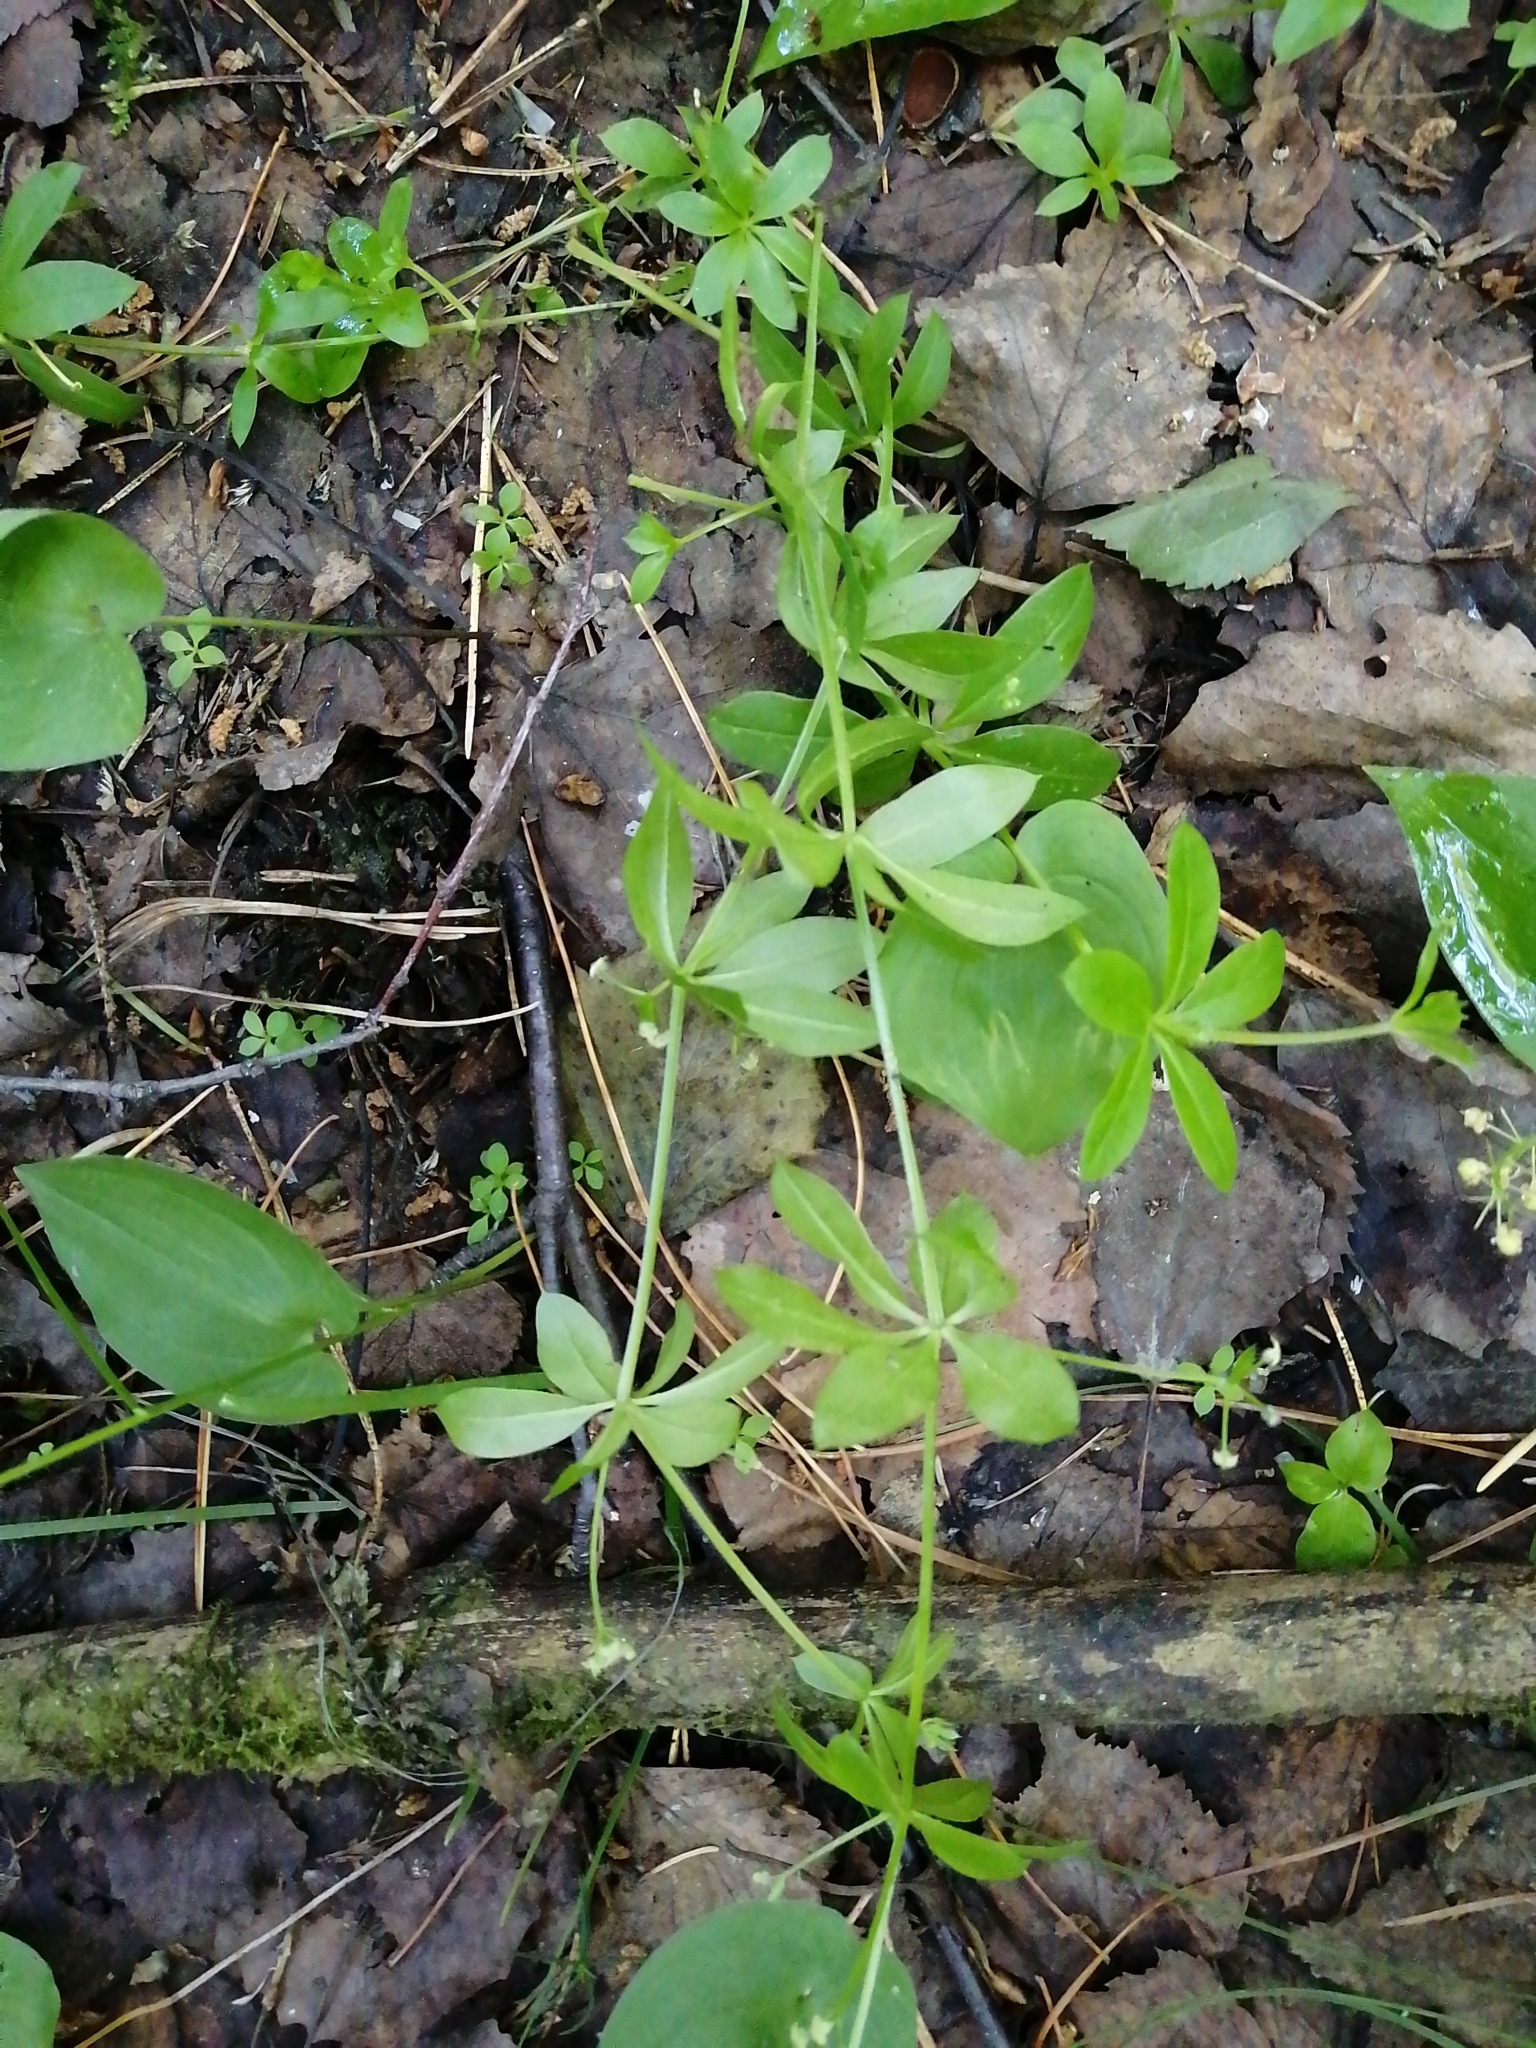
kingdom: Plantae
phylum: Tracheophyta
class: Magnoliopsida
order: Gentianales
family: Rubiaceae
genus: Galium
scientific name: Galium triflorum
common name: Fragrant bedstraw
